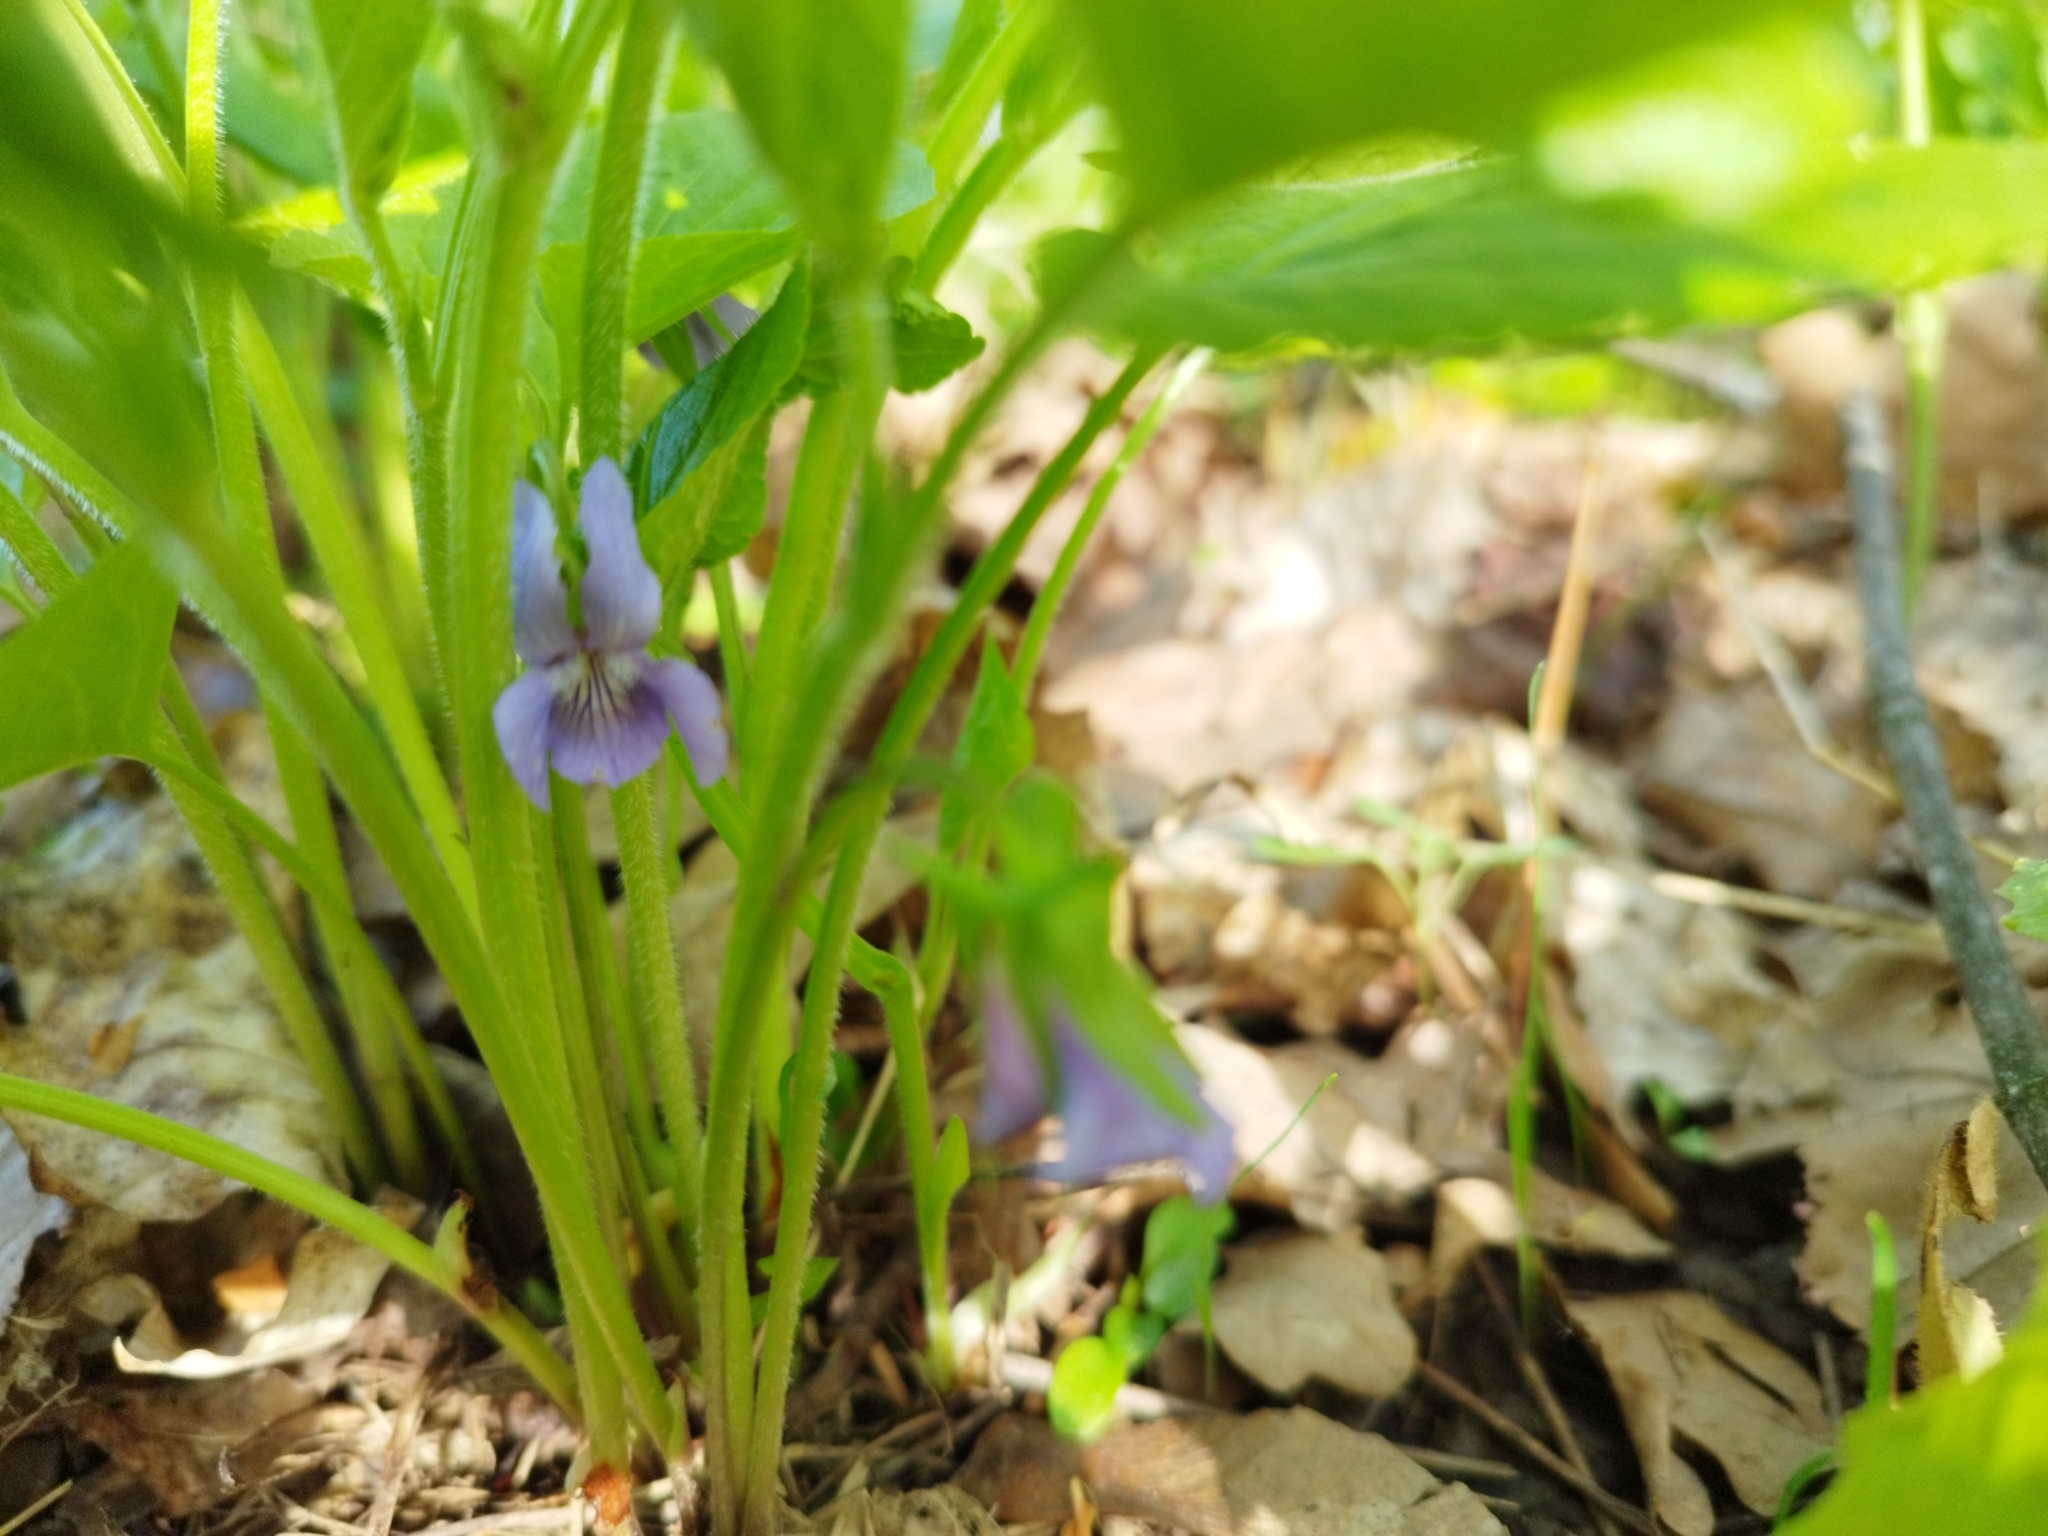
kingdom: Plantae
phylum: Tracheophyta
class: Magnoliopsida
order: Malpighiales
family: Violaceae
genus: Viola
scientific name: Viola mirabilis
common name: Wonder violet
